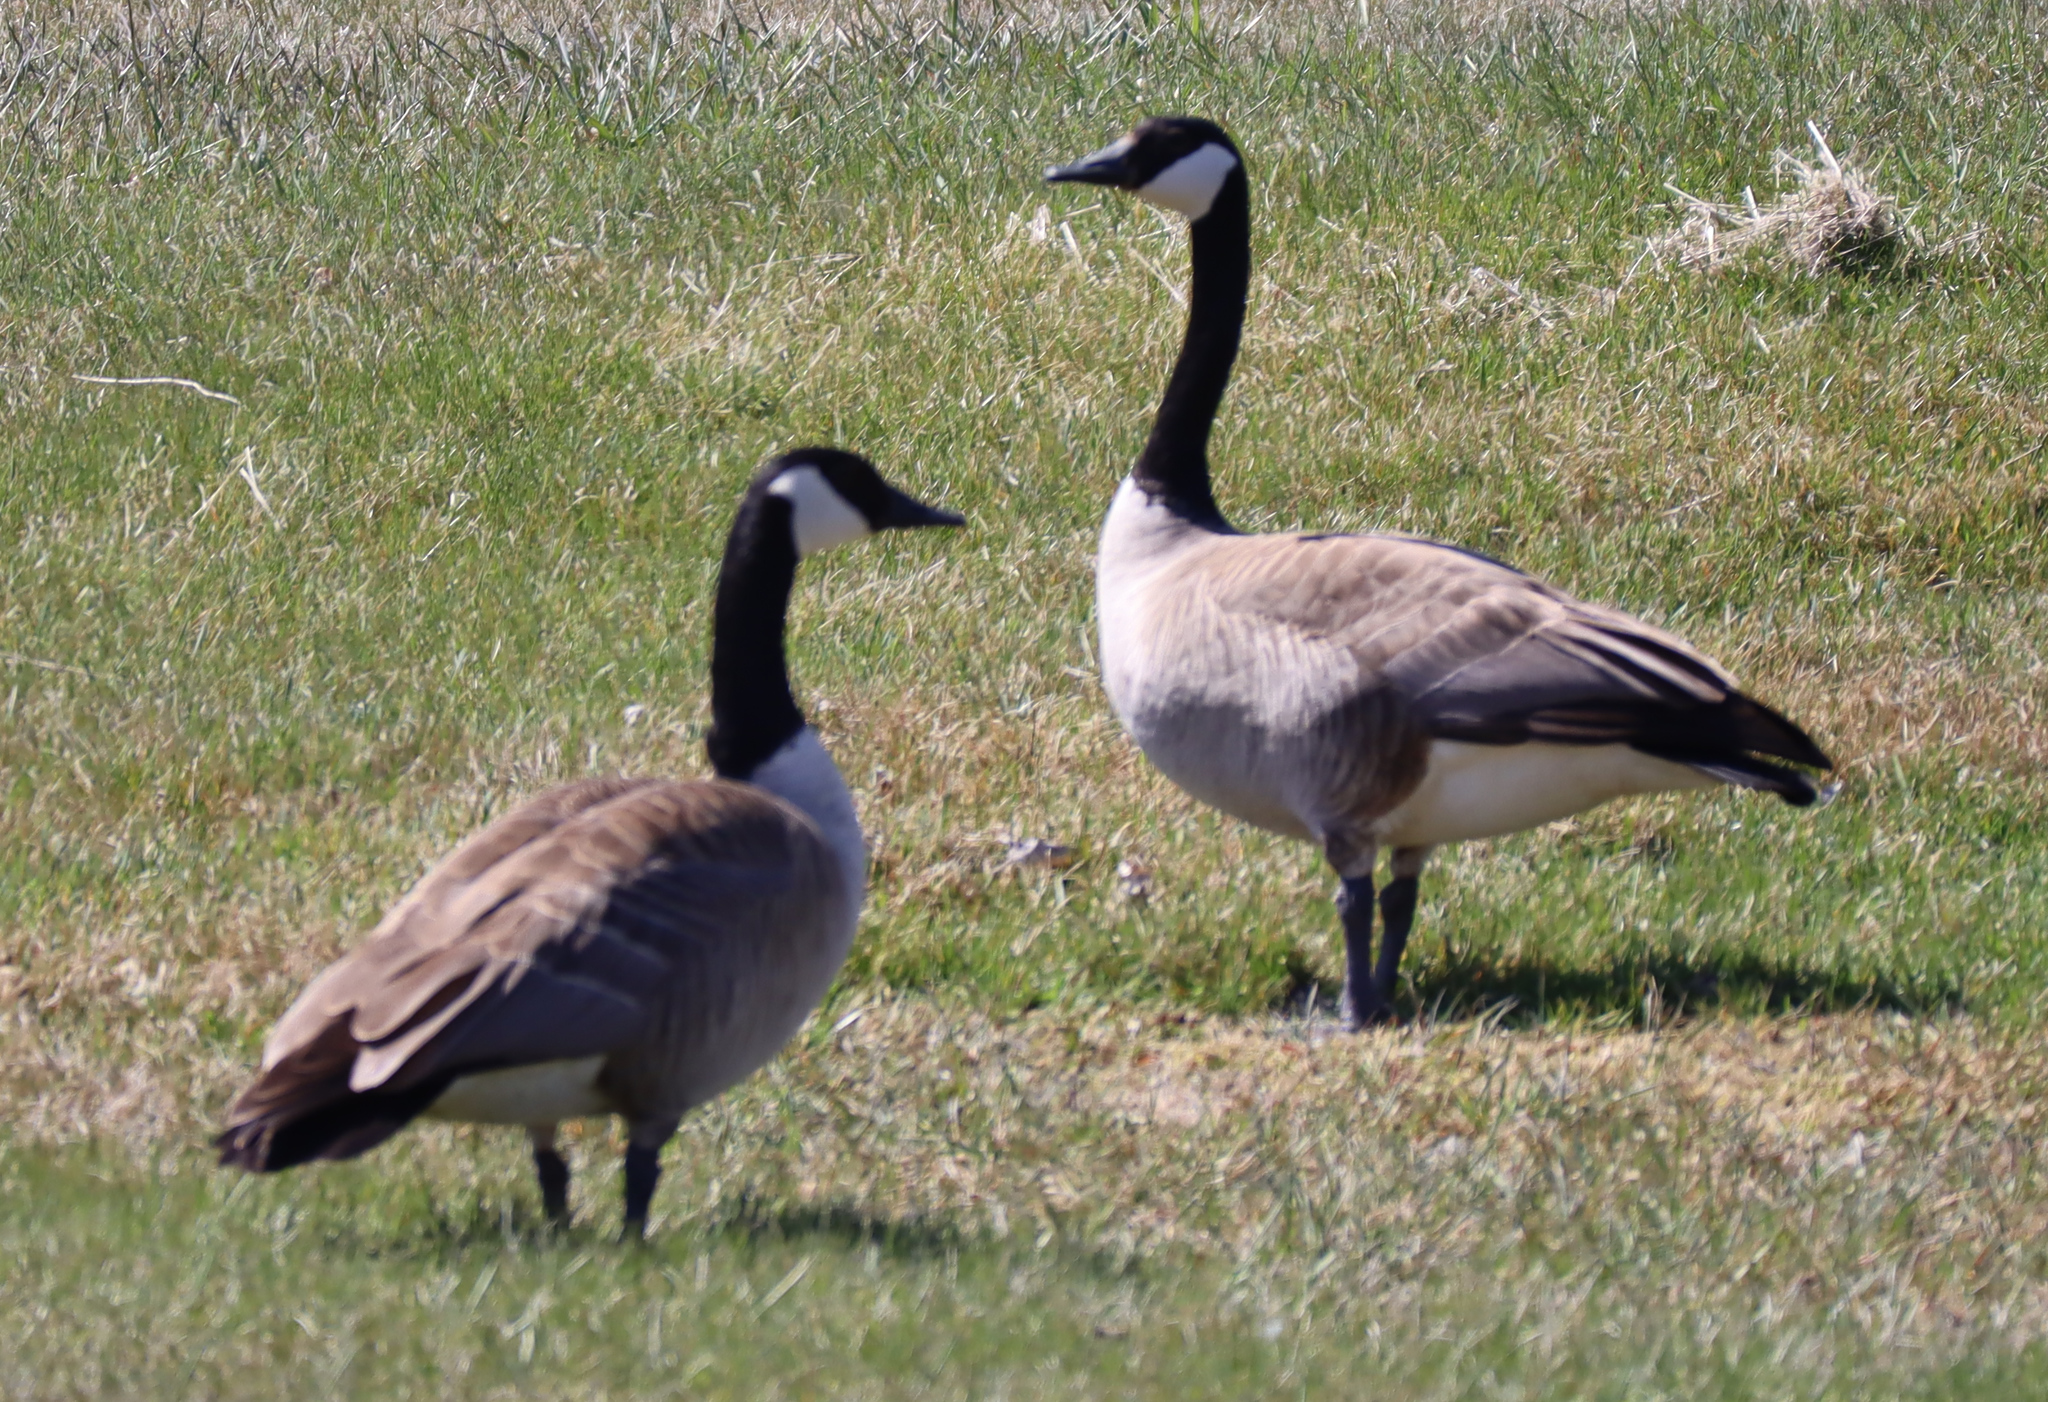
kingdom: Animalia
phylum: Chordata
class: Aves
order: Anseriformes
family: Anatidae
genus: Branta
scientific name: Branta canadensis
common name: Canada goose
